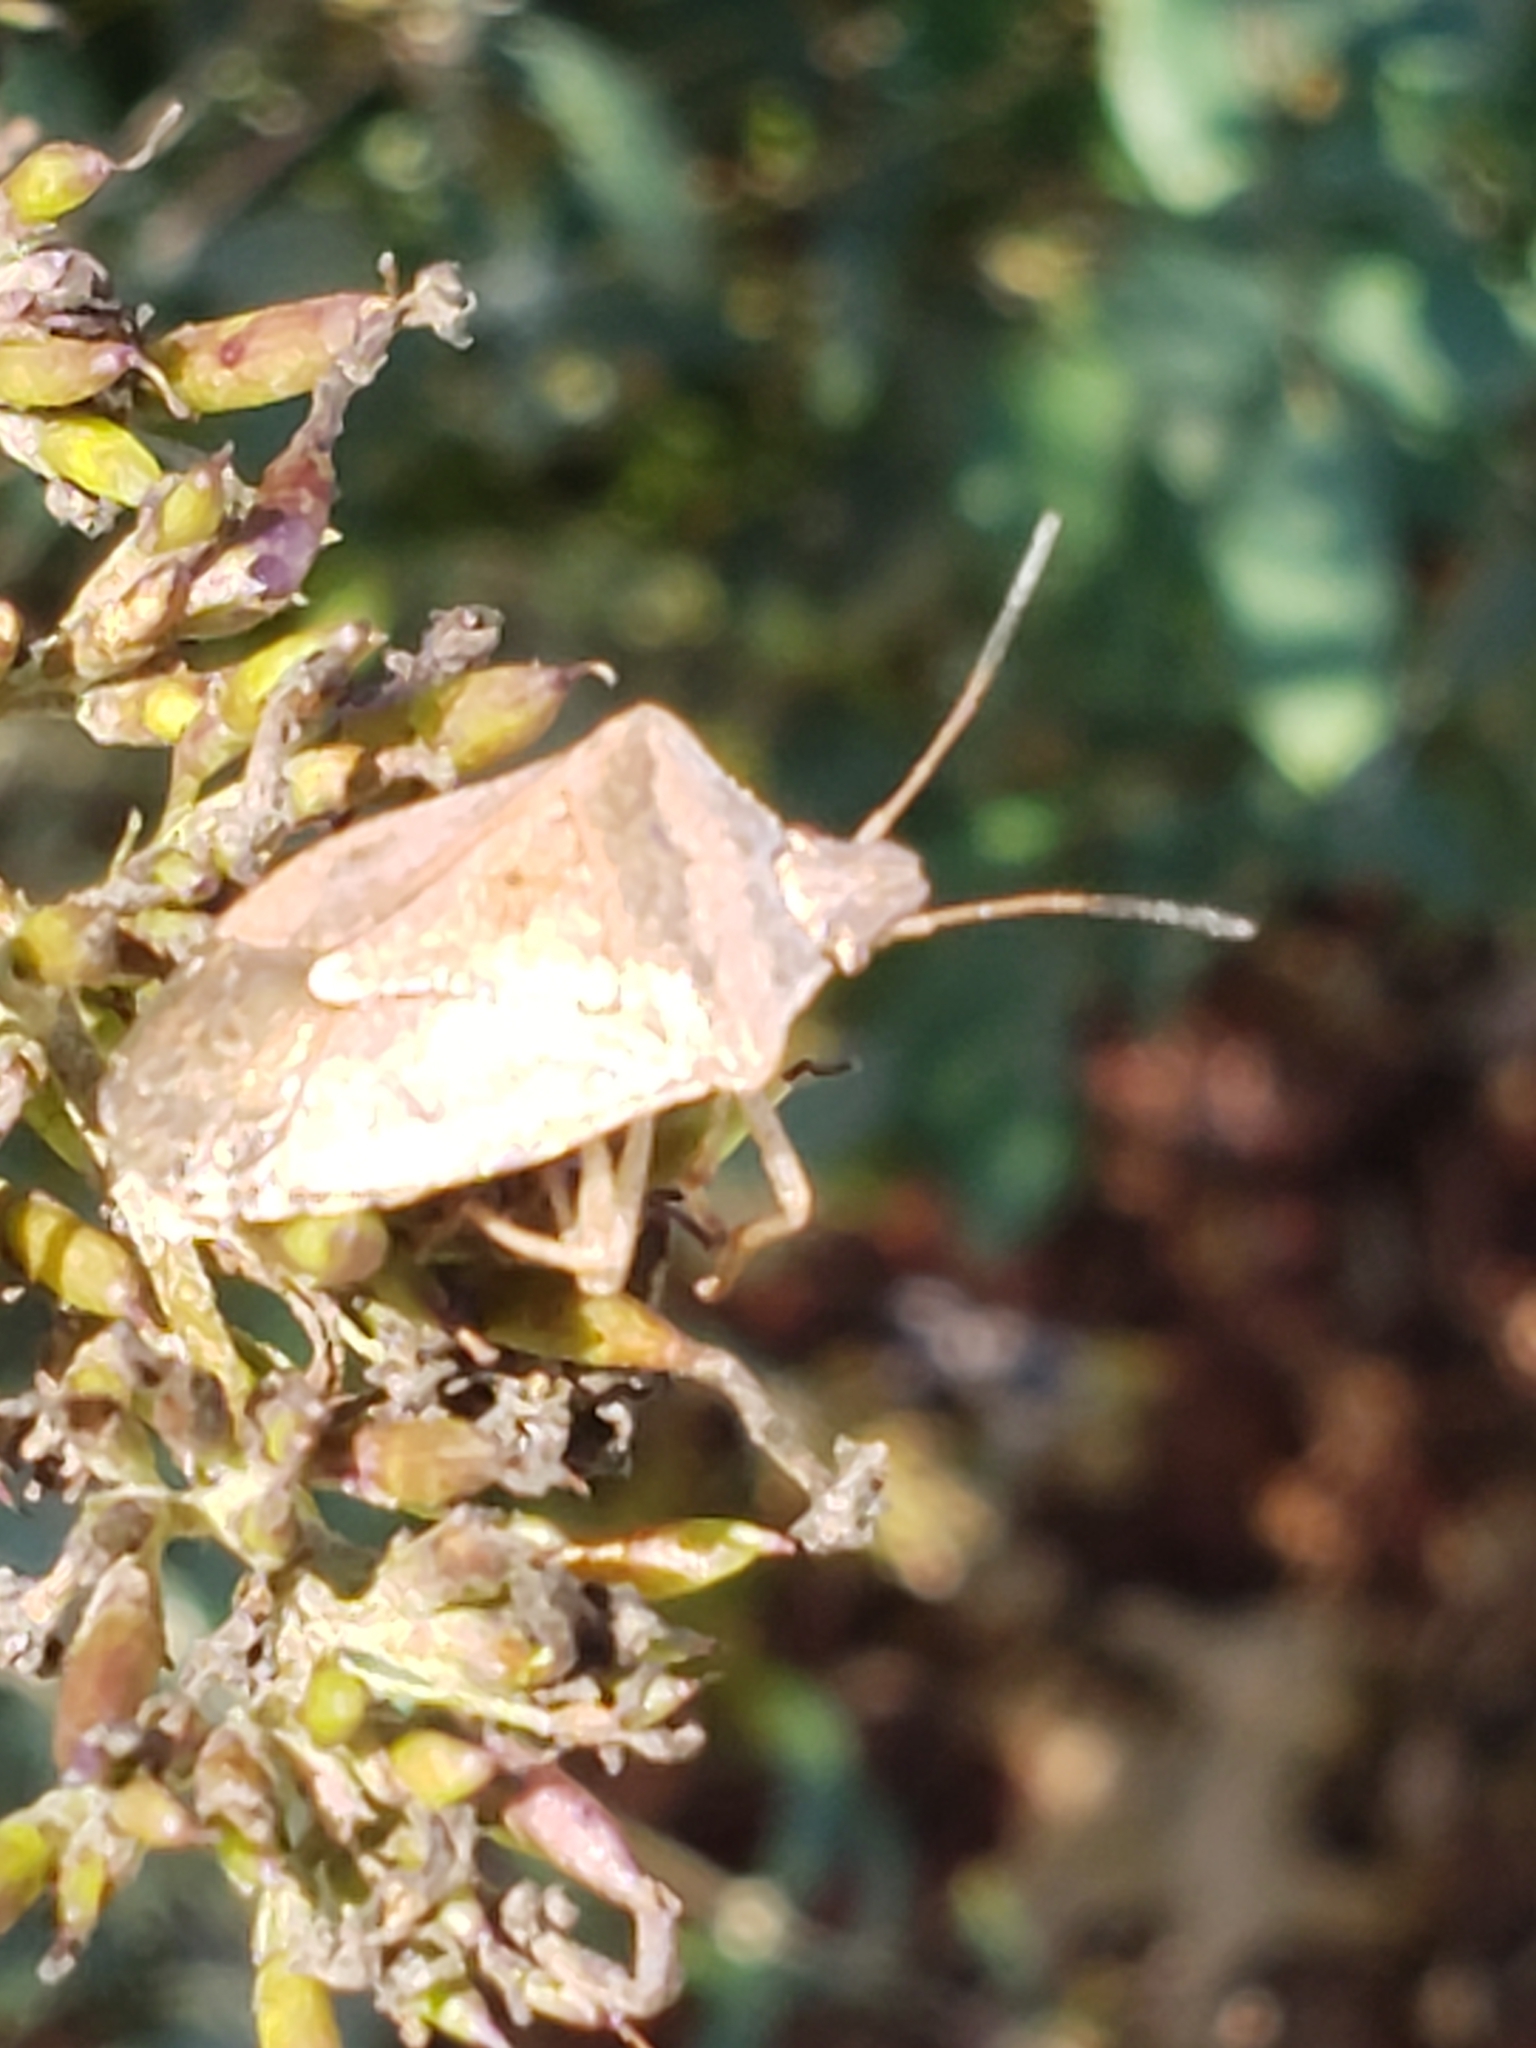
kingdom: Animalia
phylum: Arthropoda
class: Insecta
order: Hemiptera
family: Pentatomidae
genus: Euschistus
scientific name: Euschistus servus
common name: Brown stink bug
